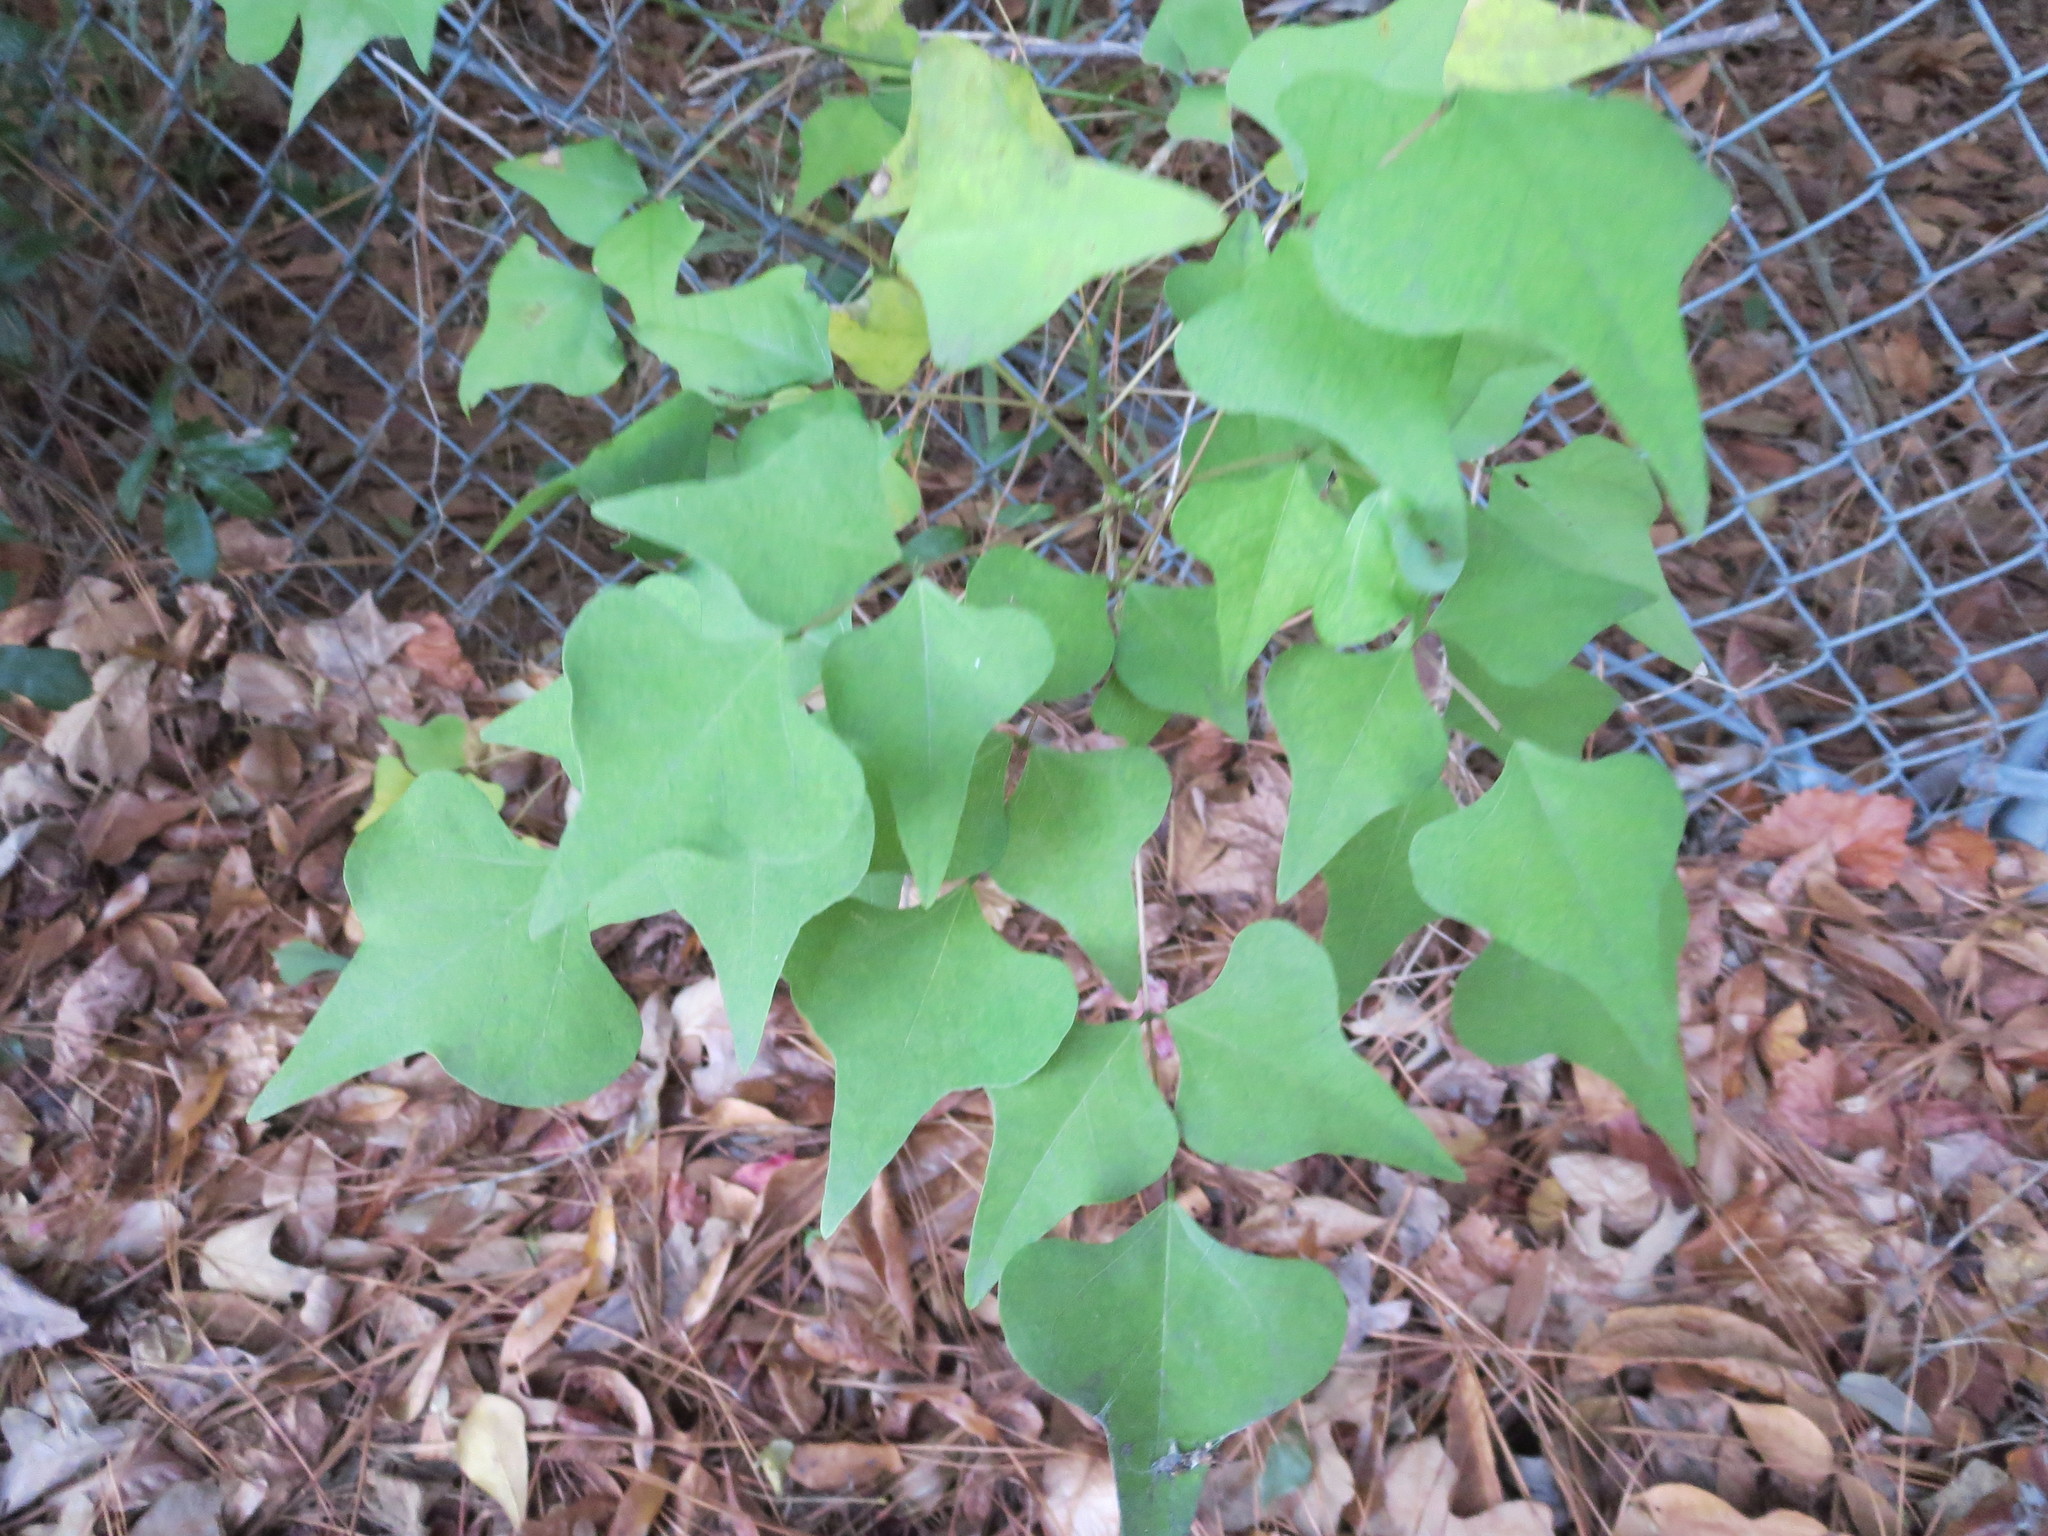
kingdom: Plantae
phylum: Tracheophyta
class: Magnoliopsida
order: Fabales
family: Fabaceae
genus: Erythrina
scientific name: Erythrina herbacea
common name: Coral-bean
